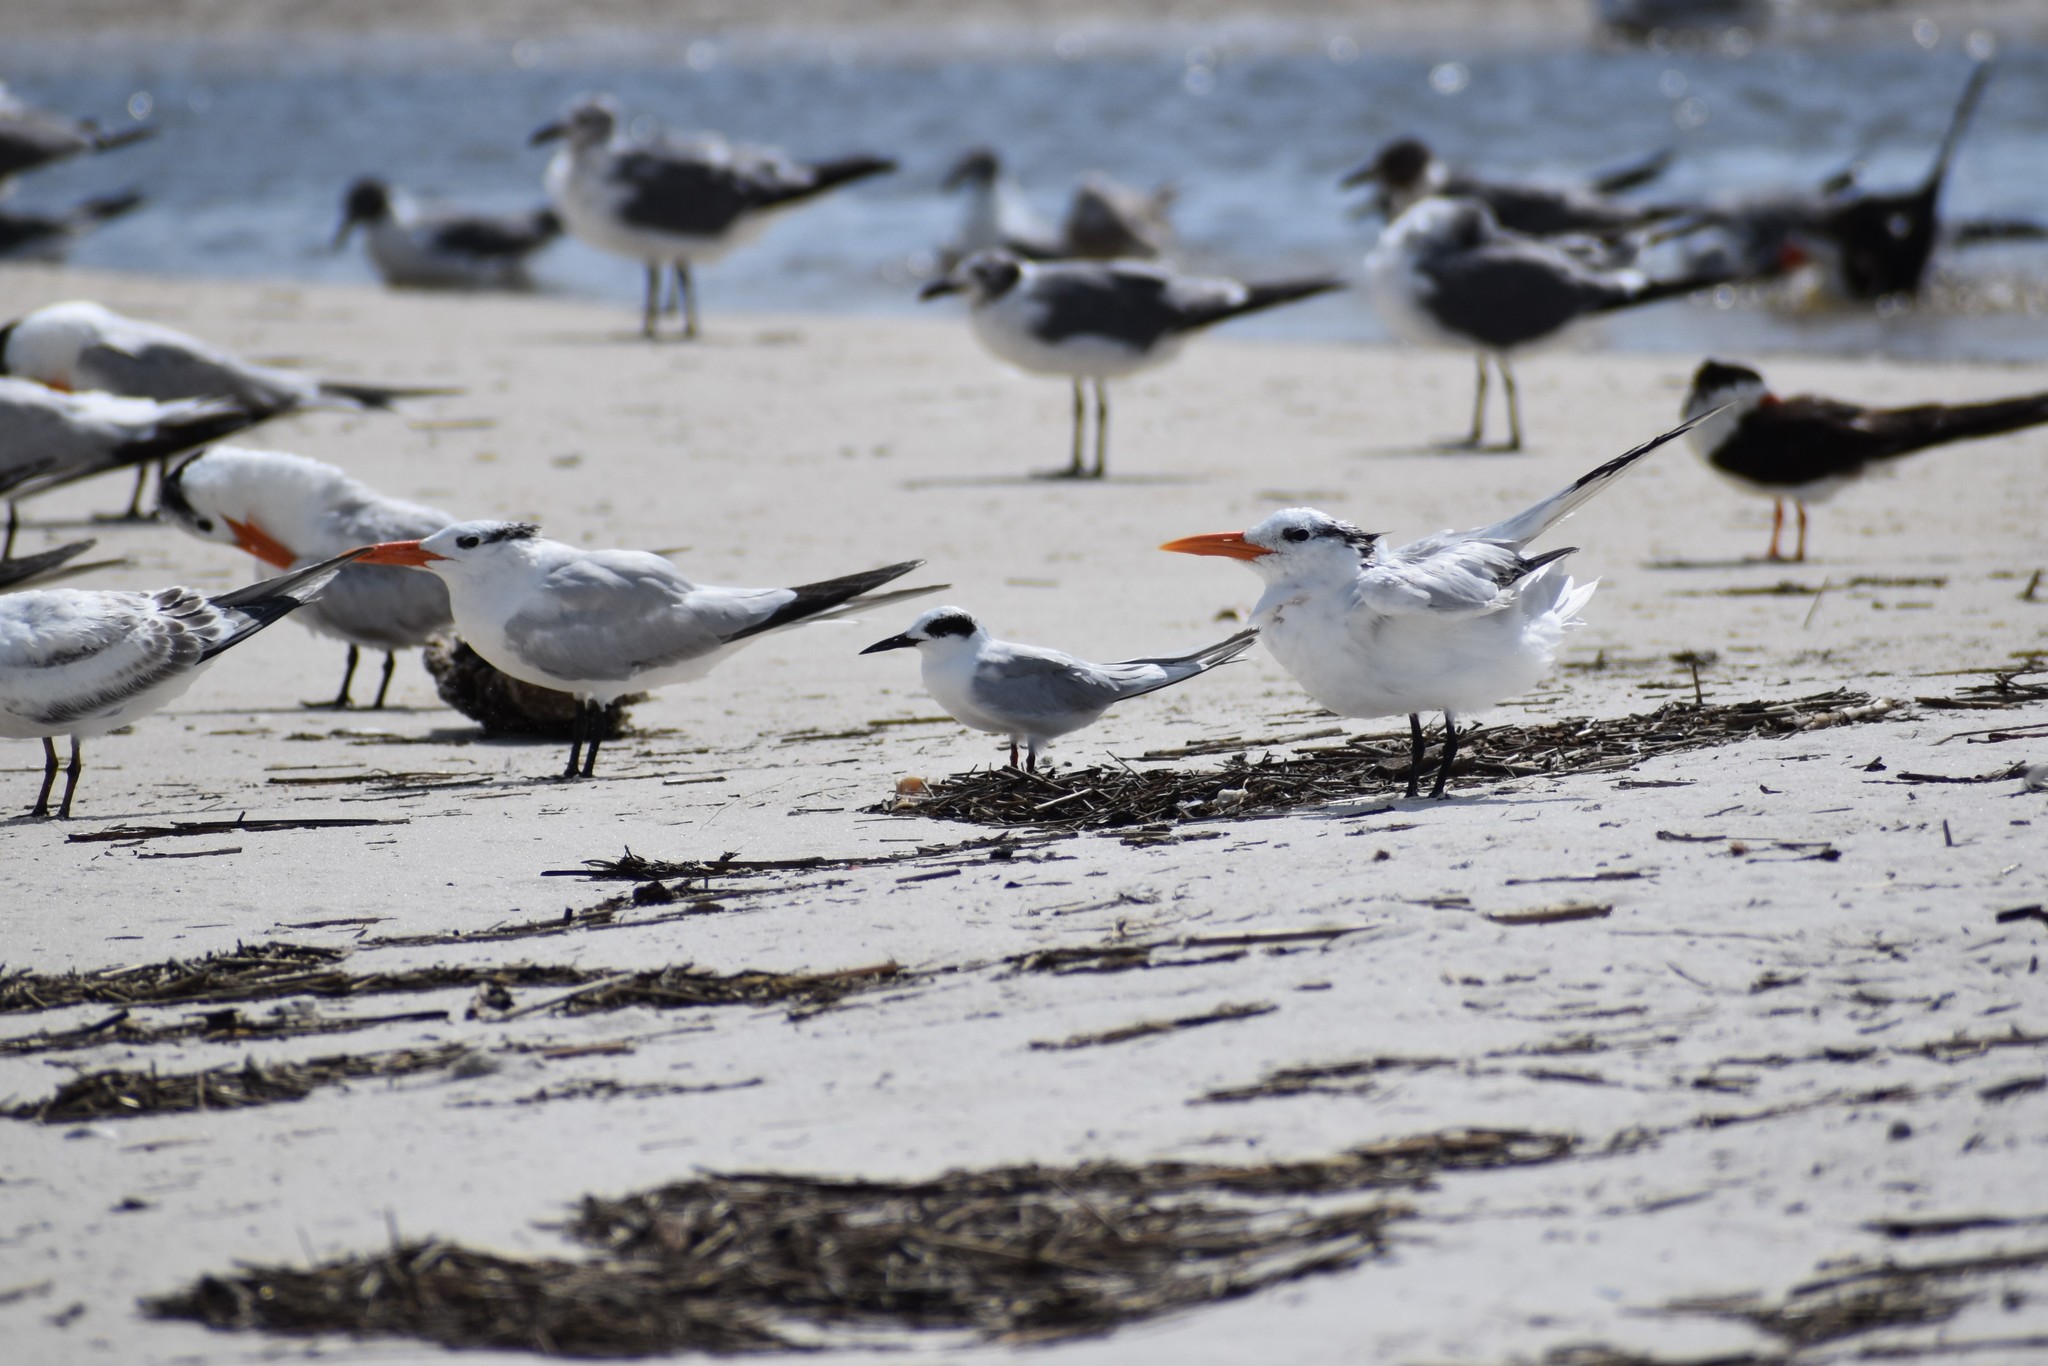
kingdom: Animalia
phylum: Chordata
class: Aves
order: Charadriiformes
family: Laridae
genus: Sterna
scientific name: Sterna forsteri
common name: Forster's tern
